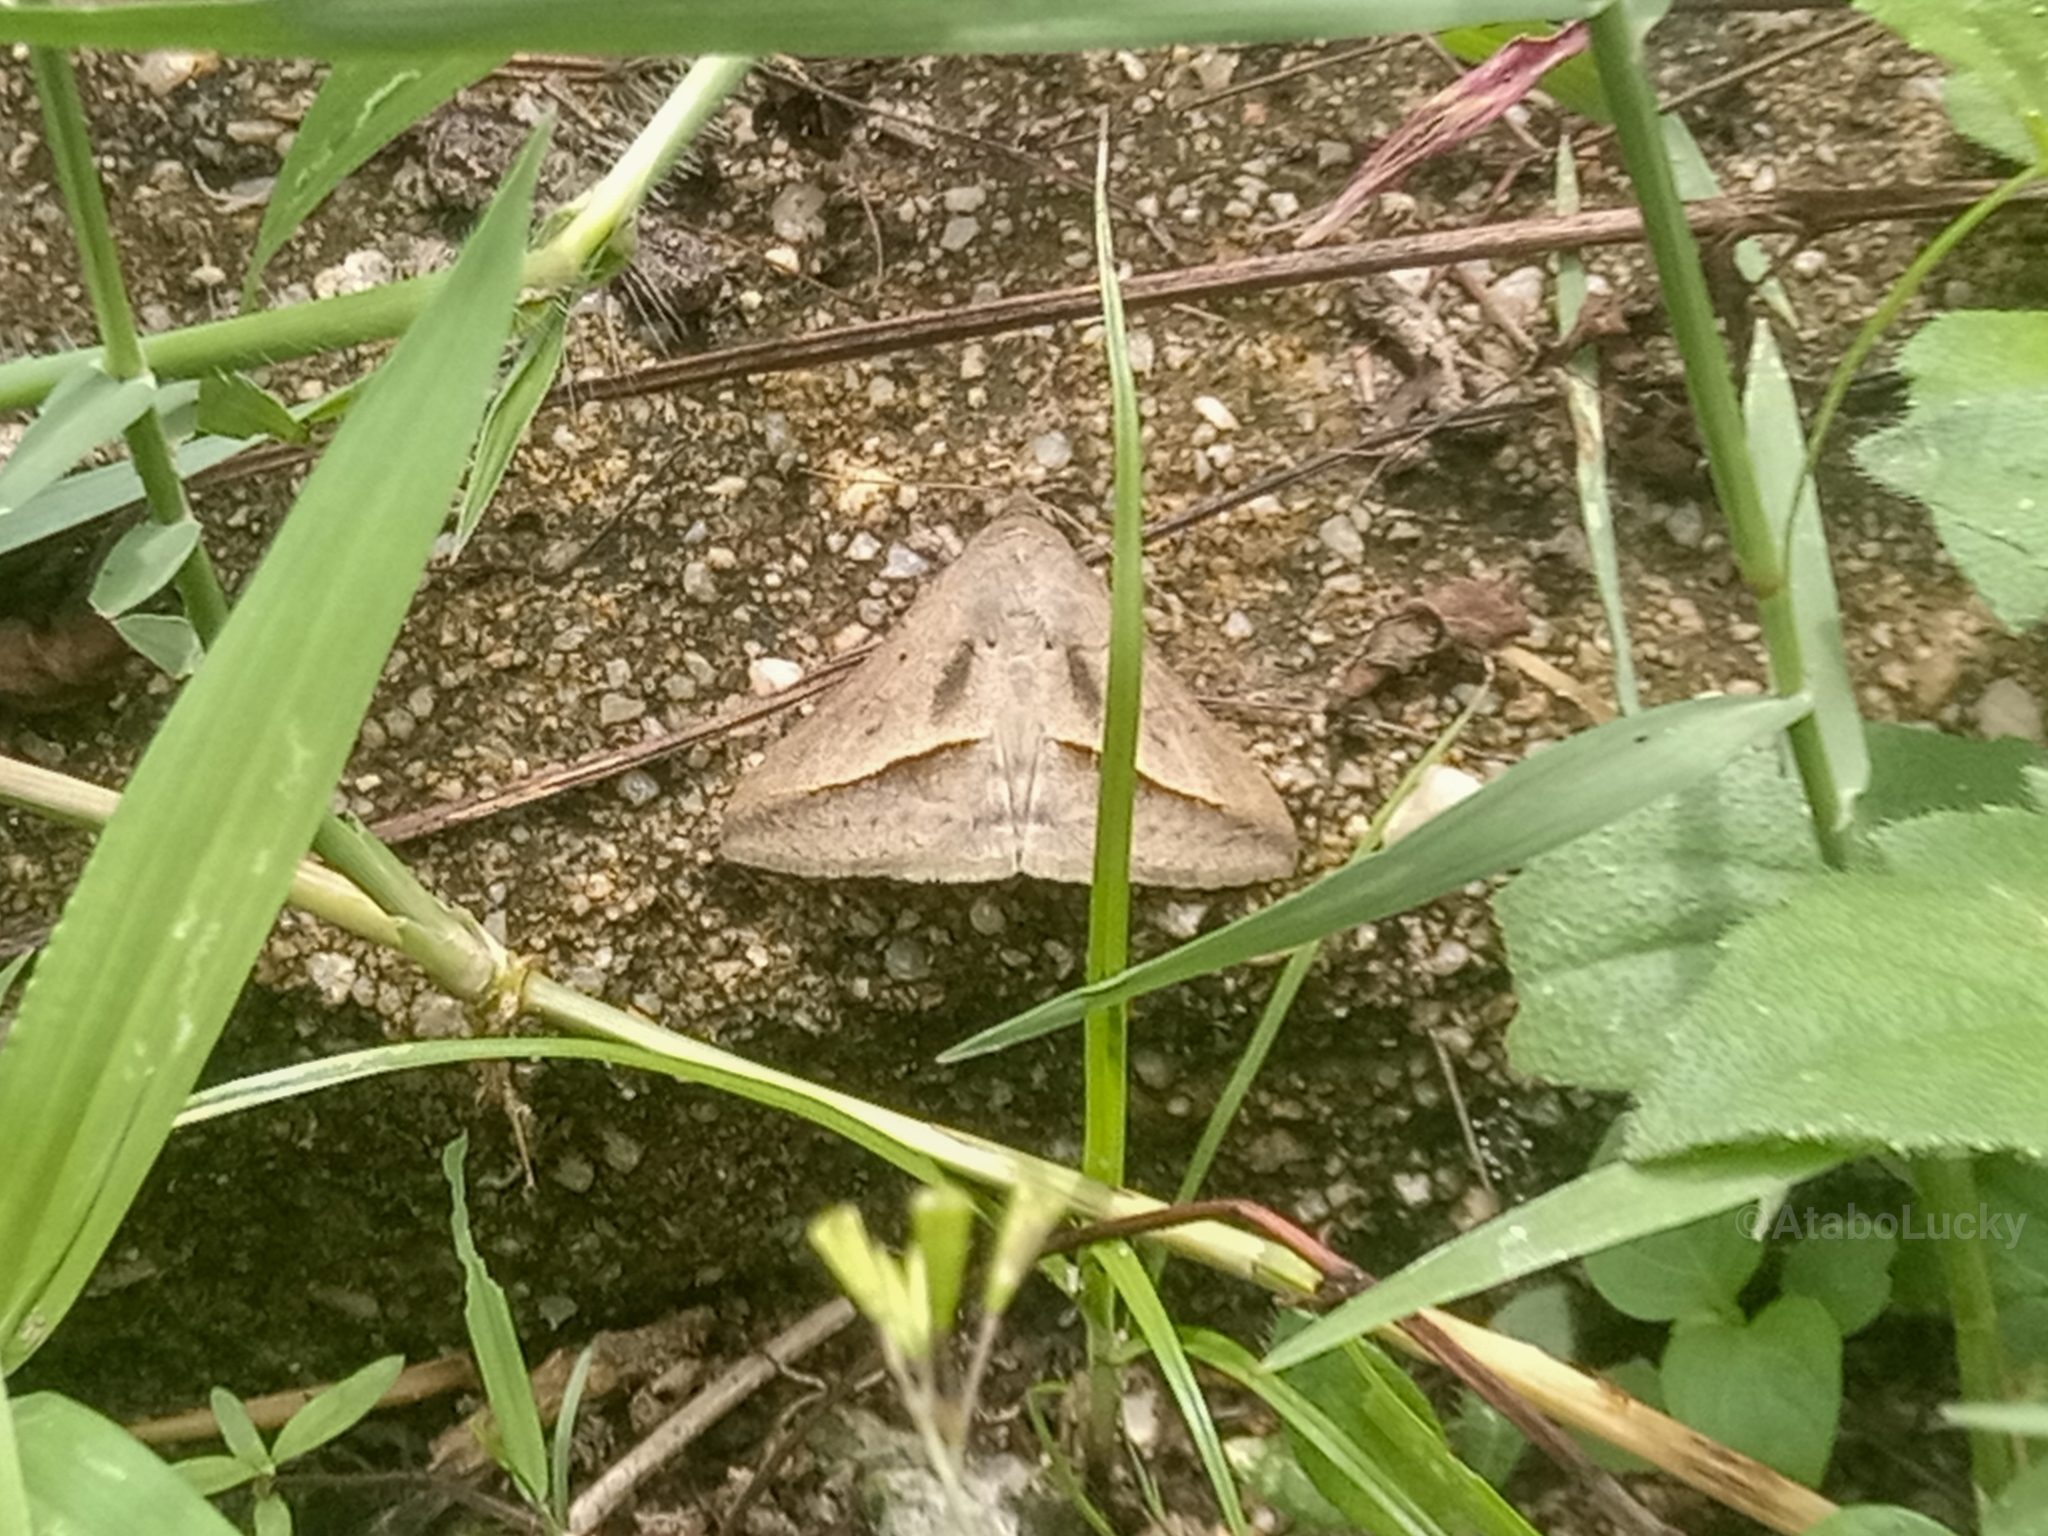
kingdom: Animalia
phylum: Arthropoda
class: Insecta
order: Lepidoptera
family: Erebidae
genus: Mocis
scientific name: Mocis proverai
